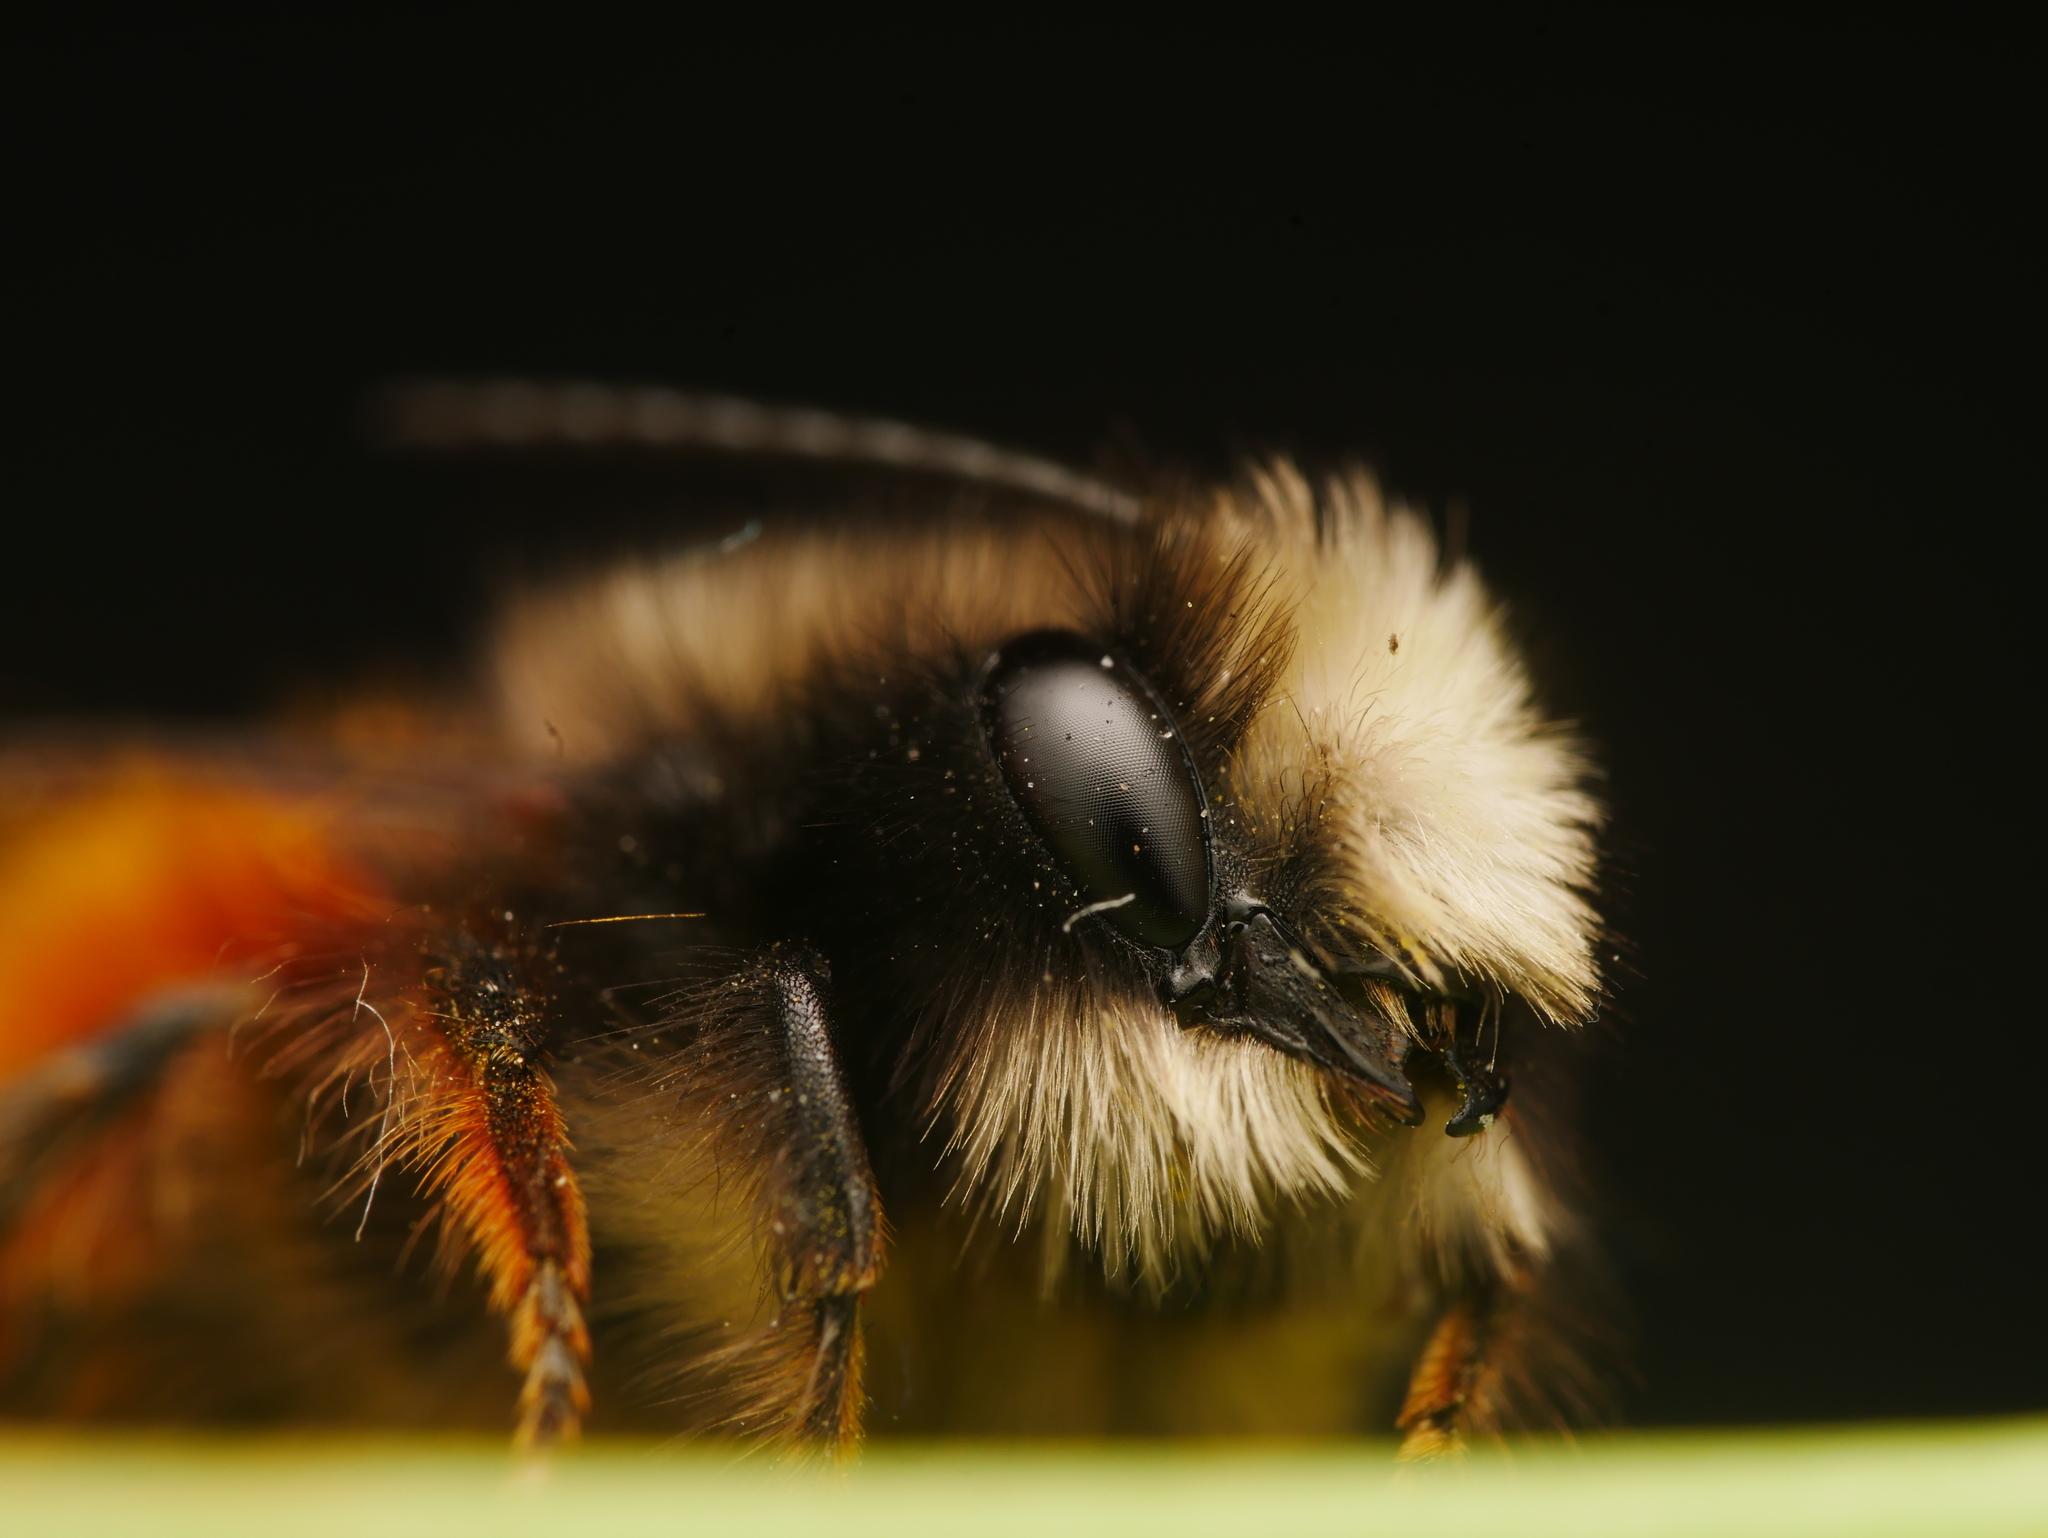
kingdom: Animalia
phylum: Arthropoda
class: Insecta
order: Hymenoptera
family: Megachilidae
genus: Osmia
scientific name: Osmia cornuta
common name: Mason bee
